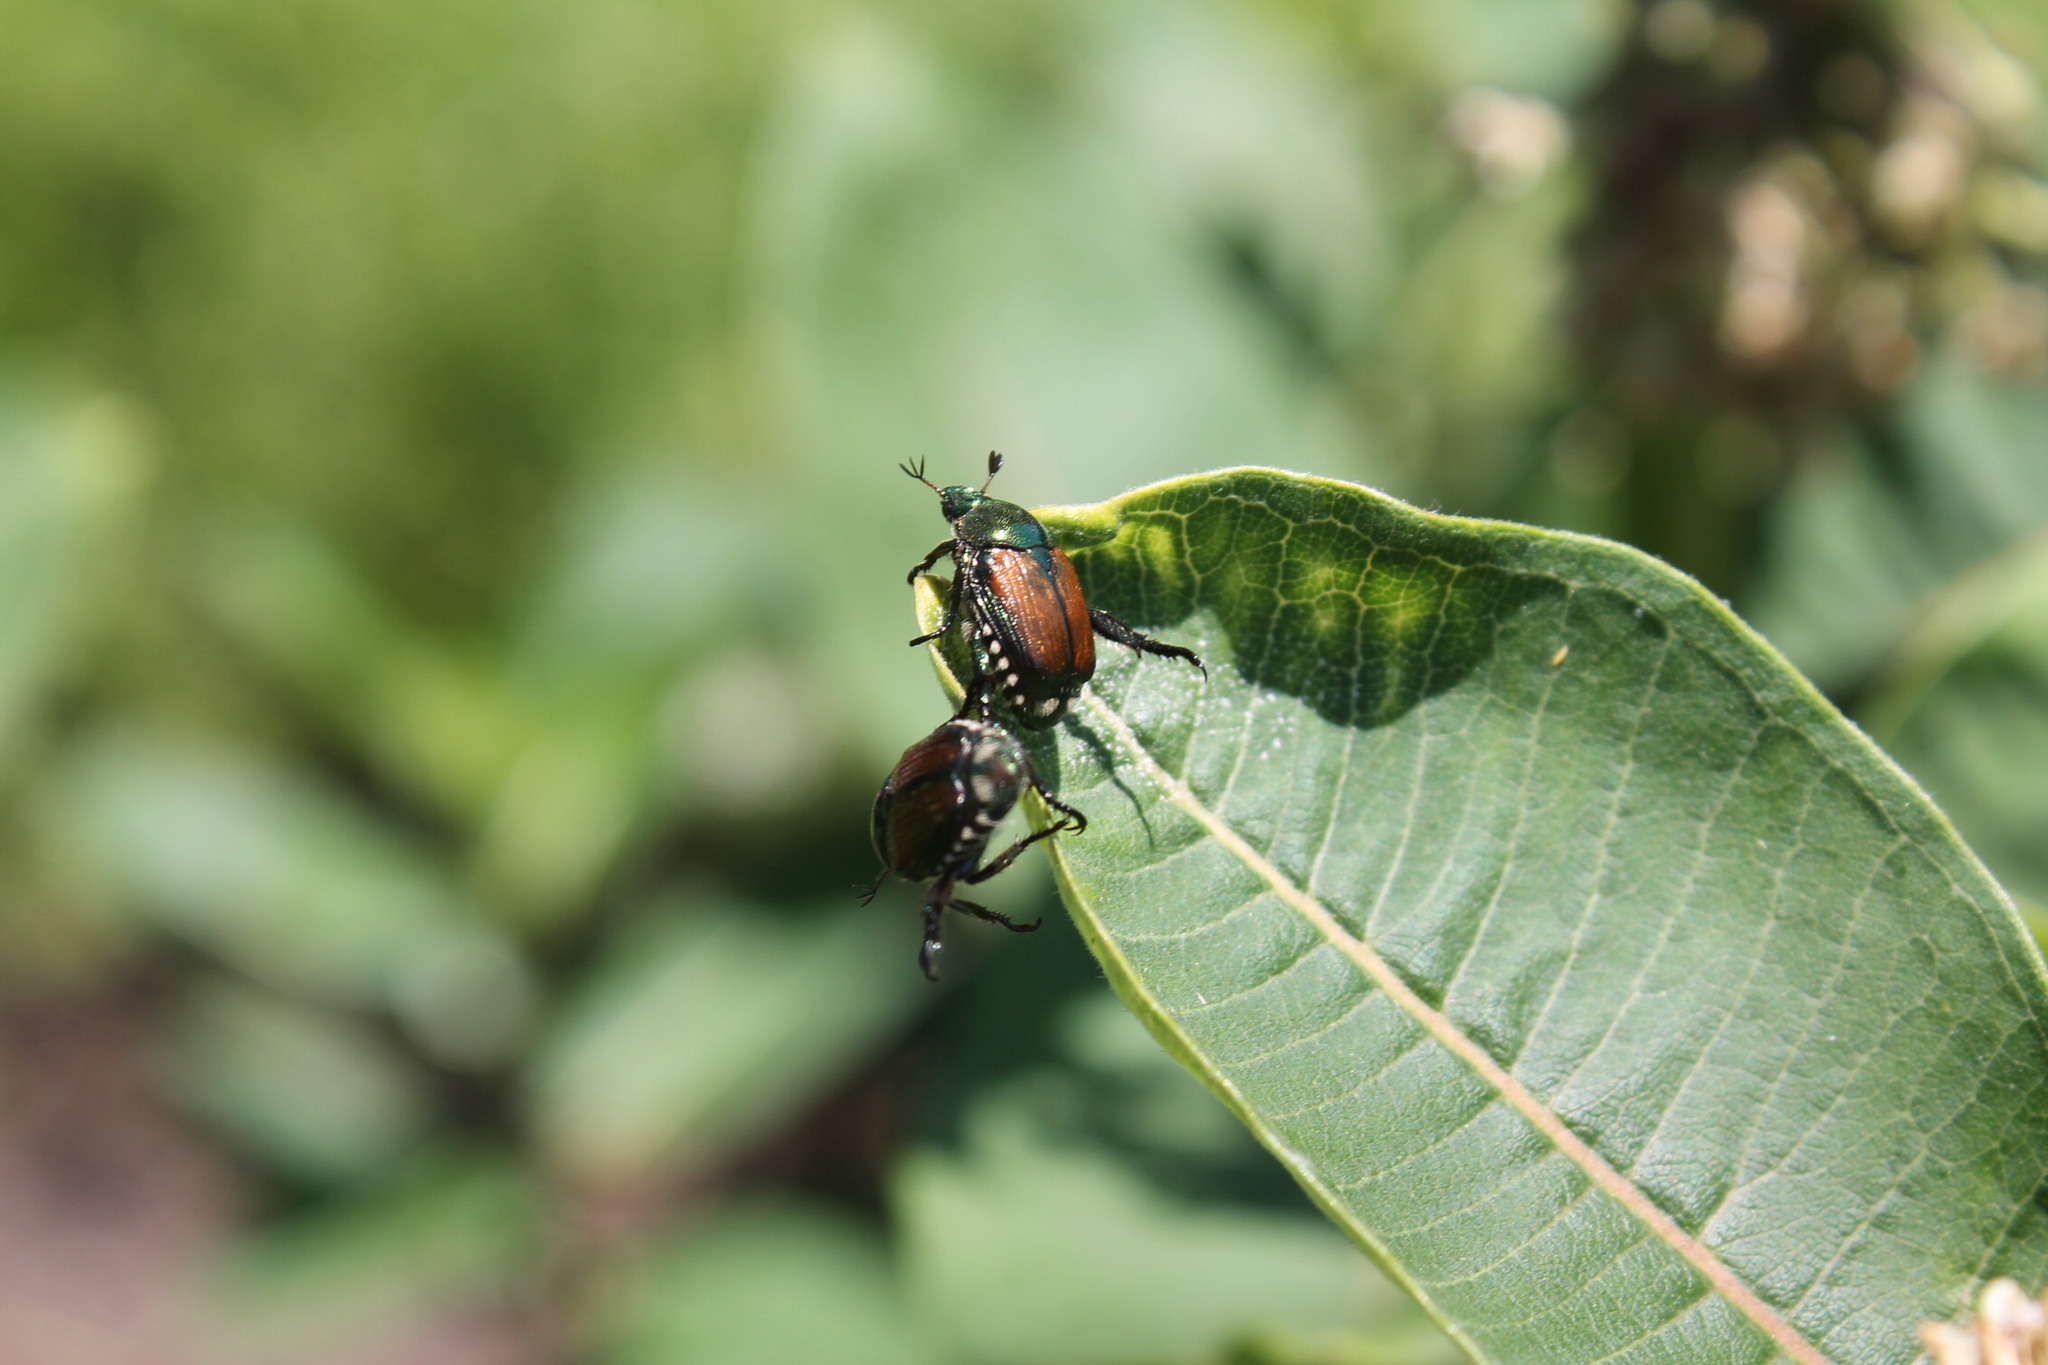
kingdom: Animalia
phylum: Arthropoda
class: Insecta
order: Coleoptera
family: Scarabaeidae
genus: Popillia
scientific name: Popillia japonica
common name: Japanese beetle
